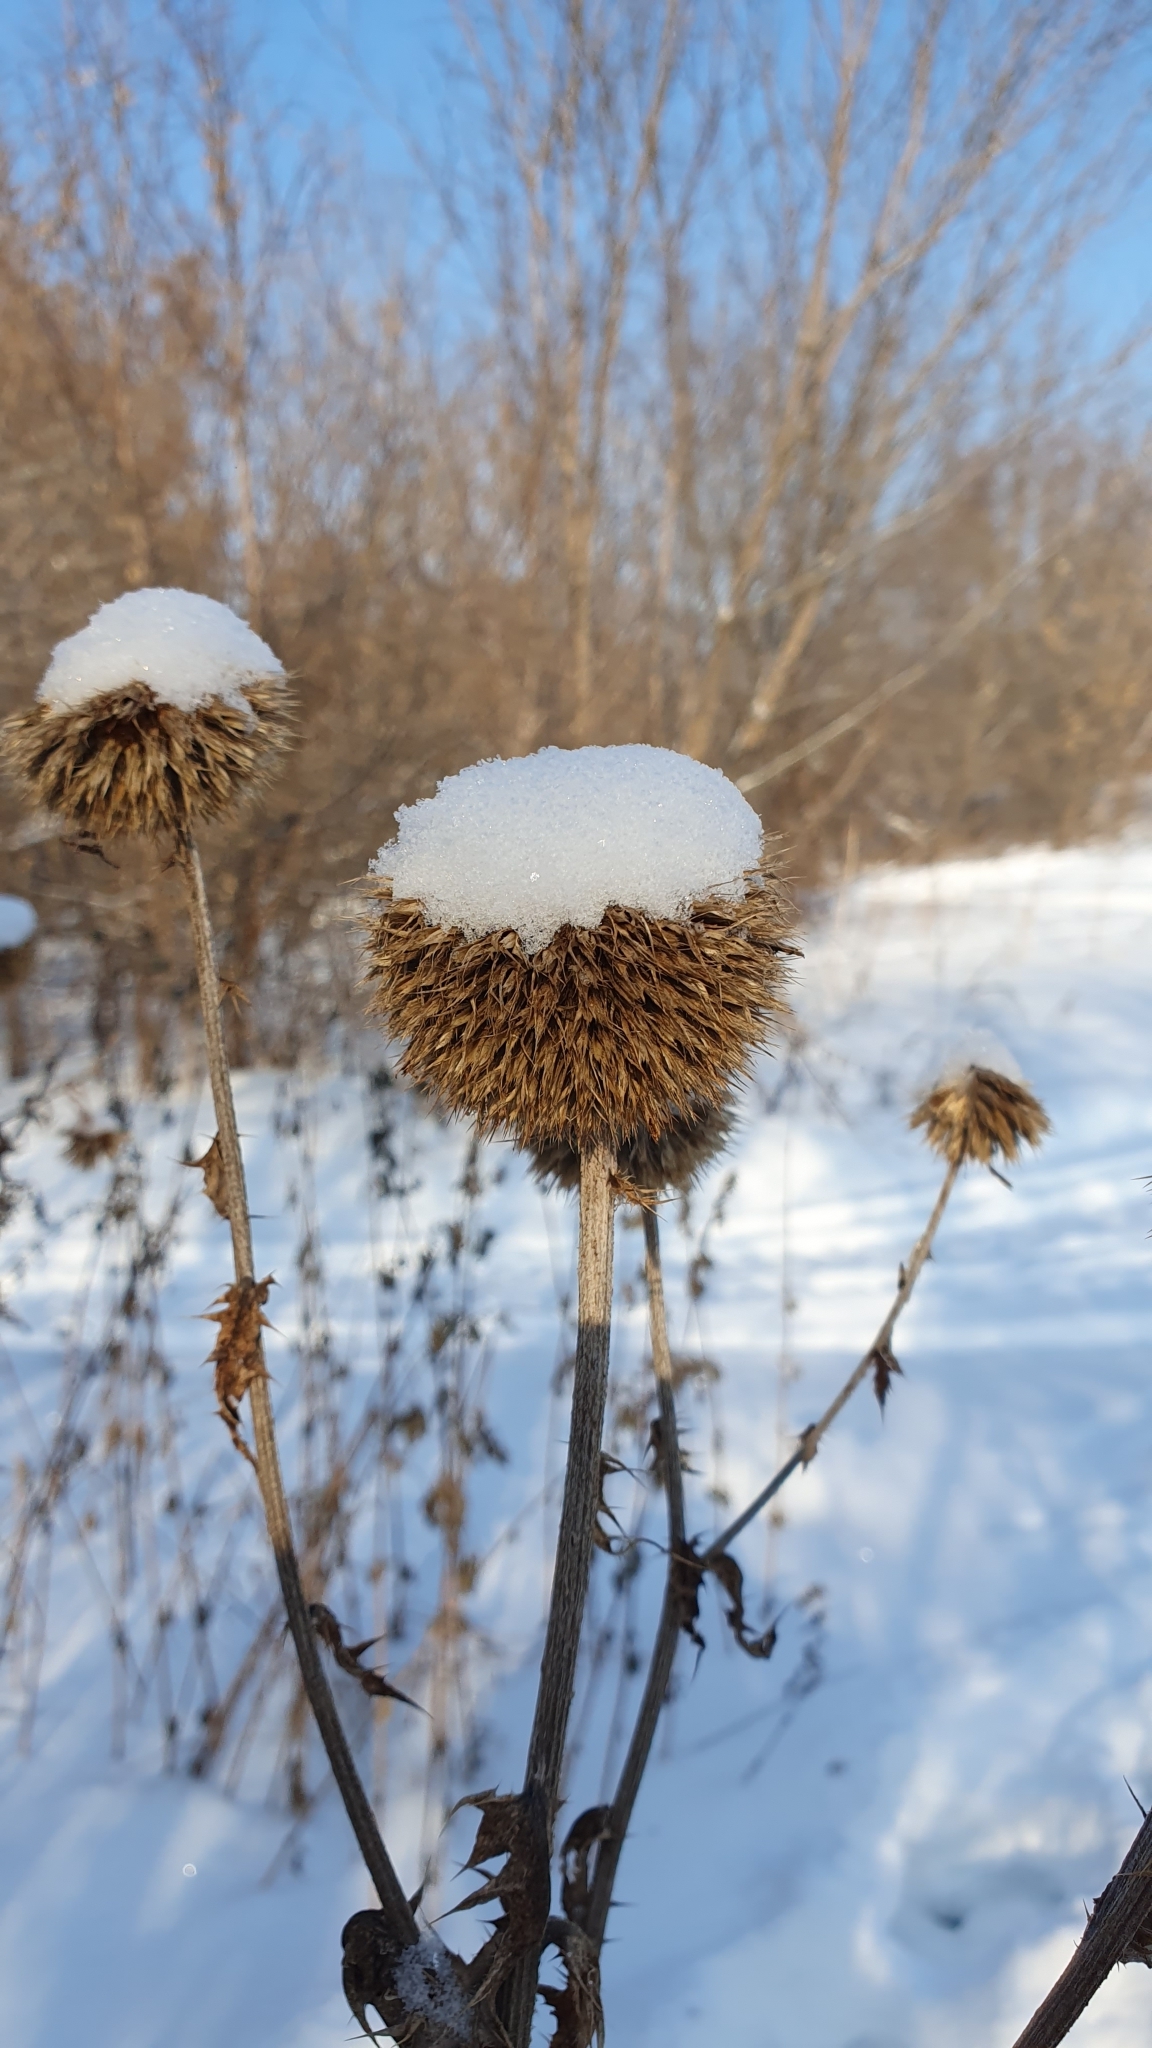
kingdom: Plantae
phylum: Tracheophyta
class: Magnoliopsida
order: Asterales
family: Asteraceae
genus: Echinops
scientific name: Echinops sphaerocephalus
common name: Glandular globe-thistle
